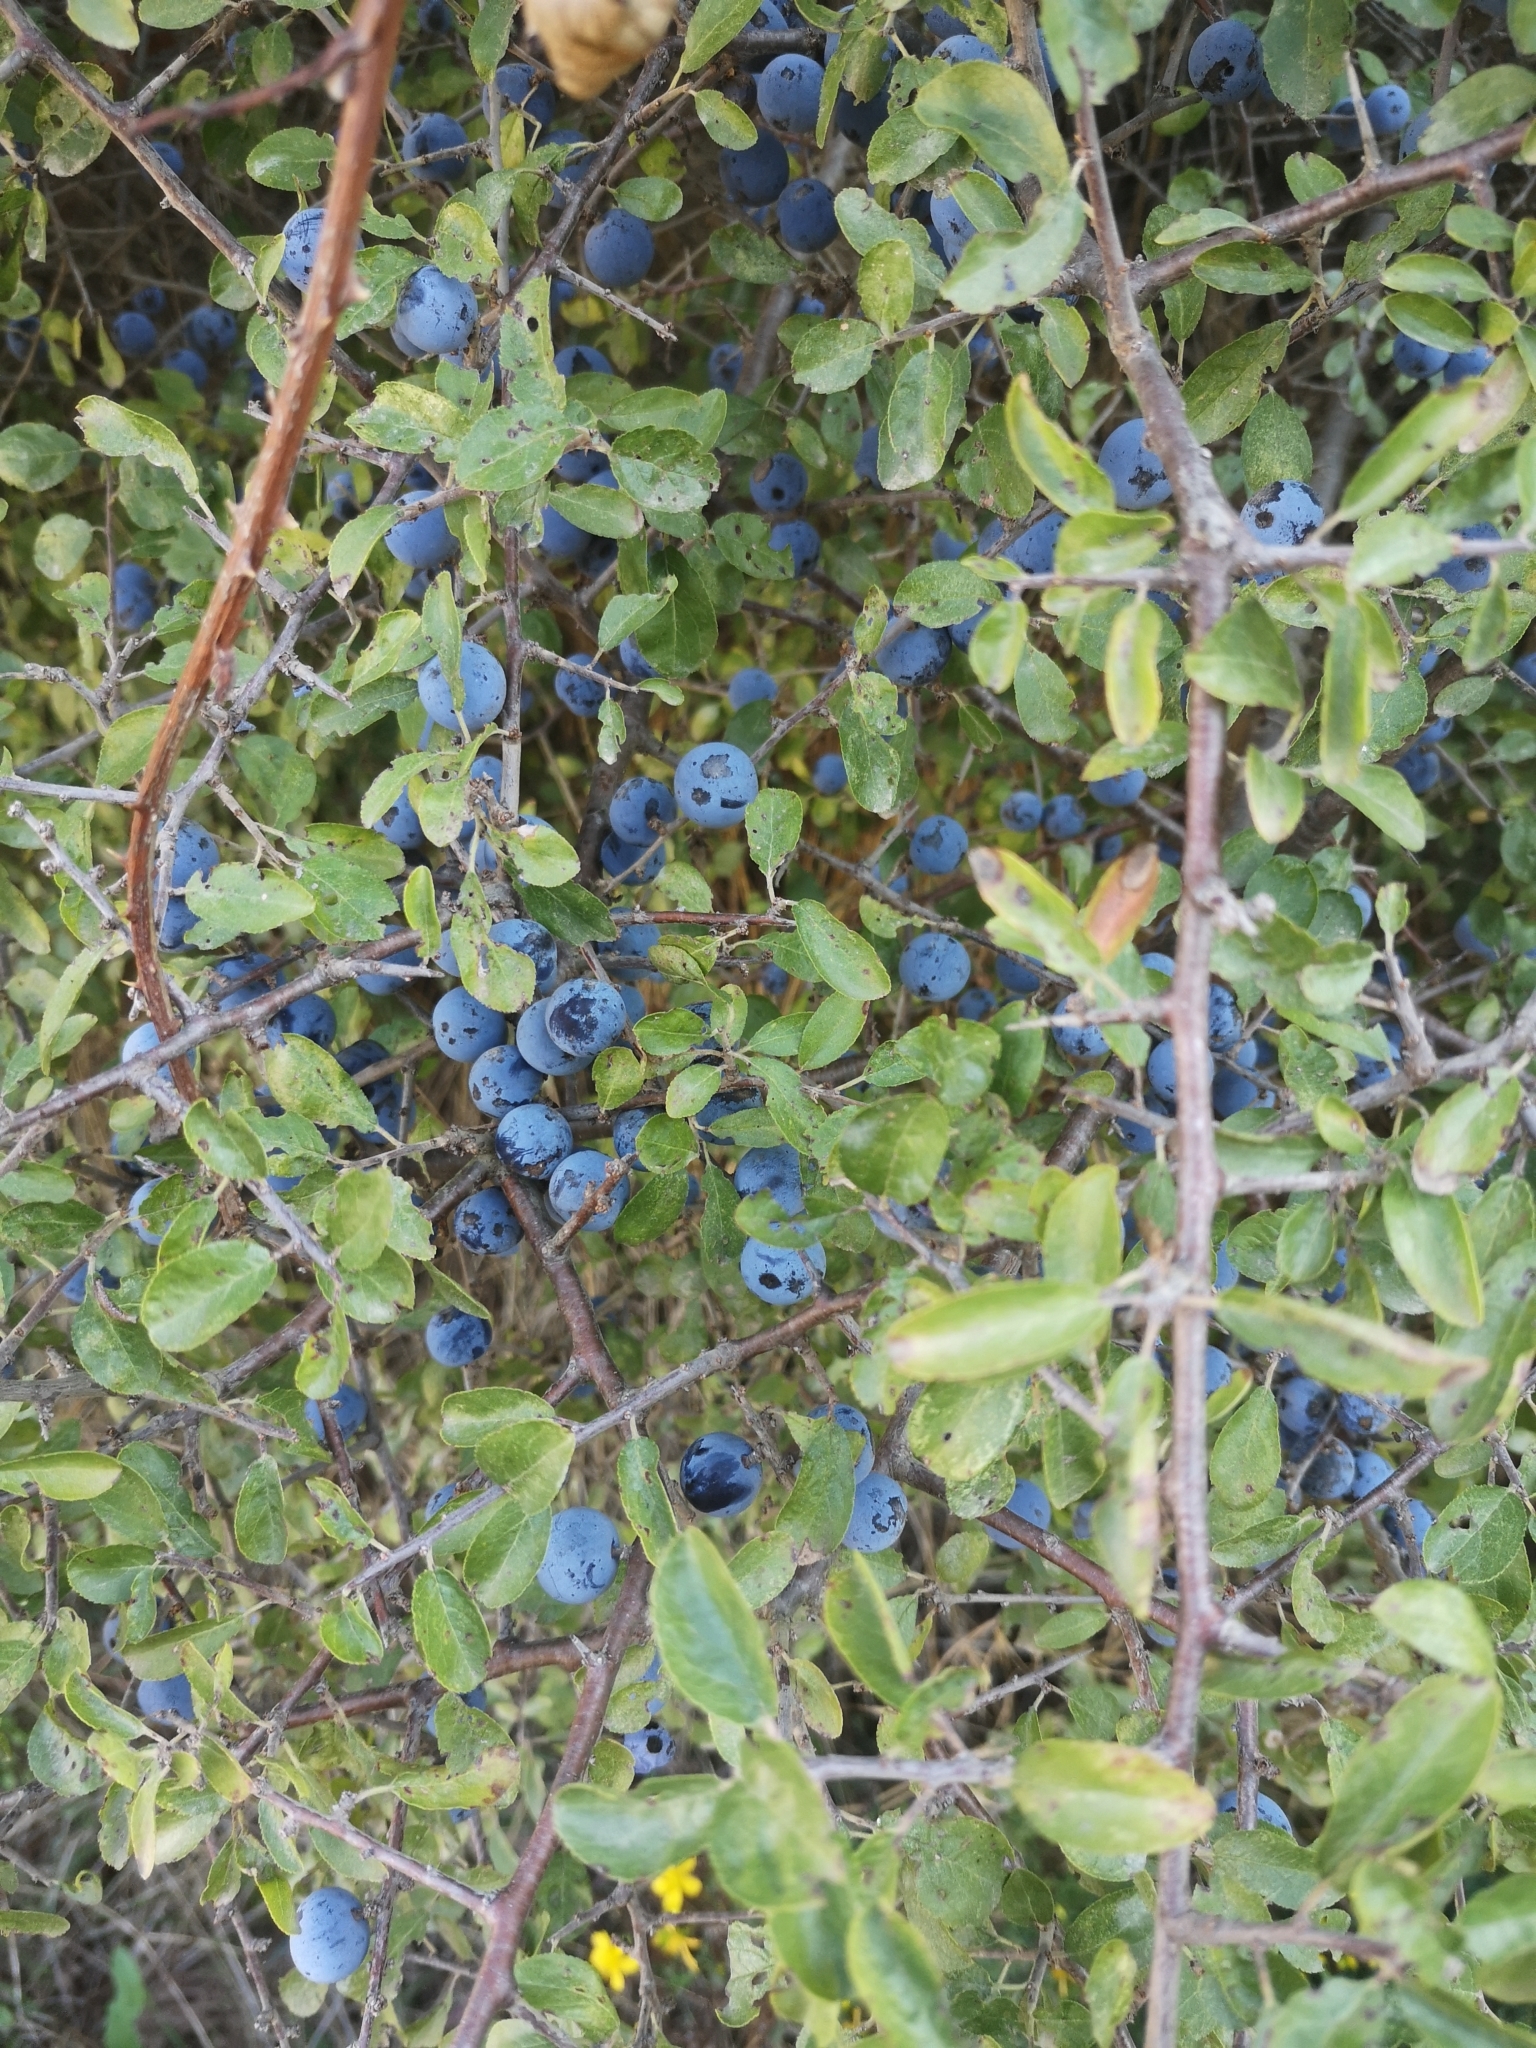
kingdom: Plantae
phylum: Tracheophyta
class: Magnoliopsida
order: Rosales
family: Rosaceae
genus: Prunus
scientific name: Prunus spinosa
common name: Blackthorn
